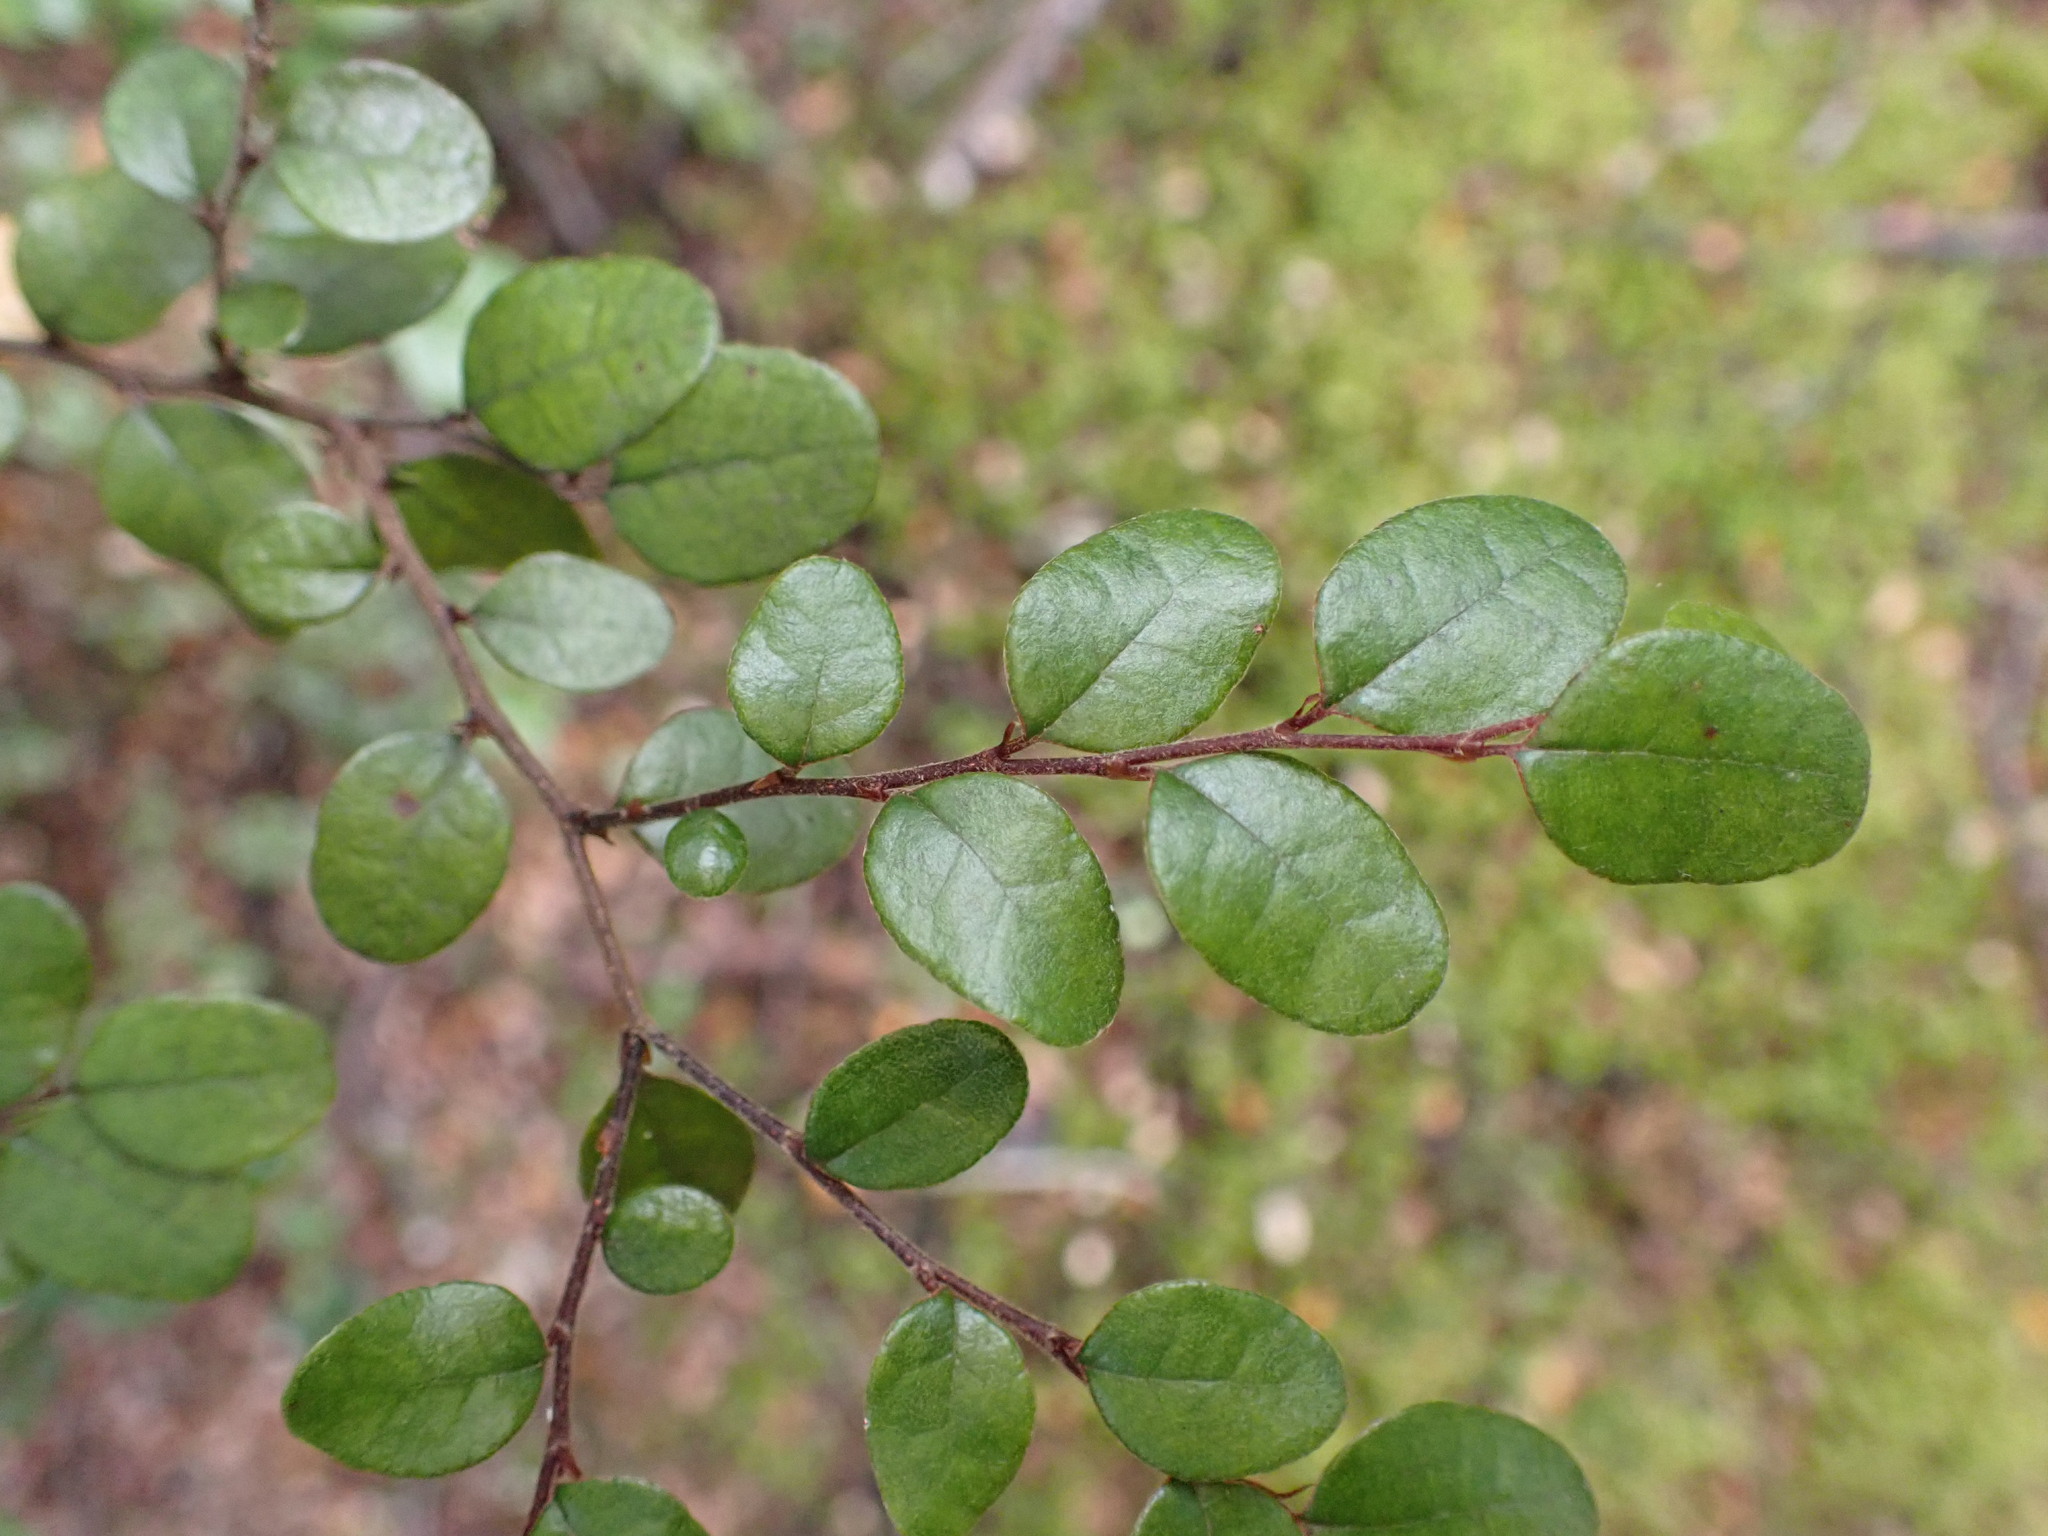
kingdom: Plantae
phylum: Tracheophyta
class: Magnoliopsida
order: Fagales
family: Nothofagaceae
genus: Nothofagus
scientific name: Nothofagus cliffortioides
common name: Mountain beech
